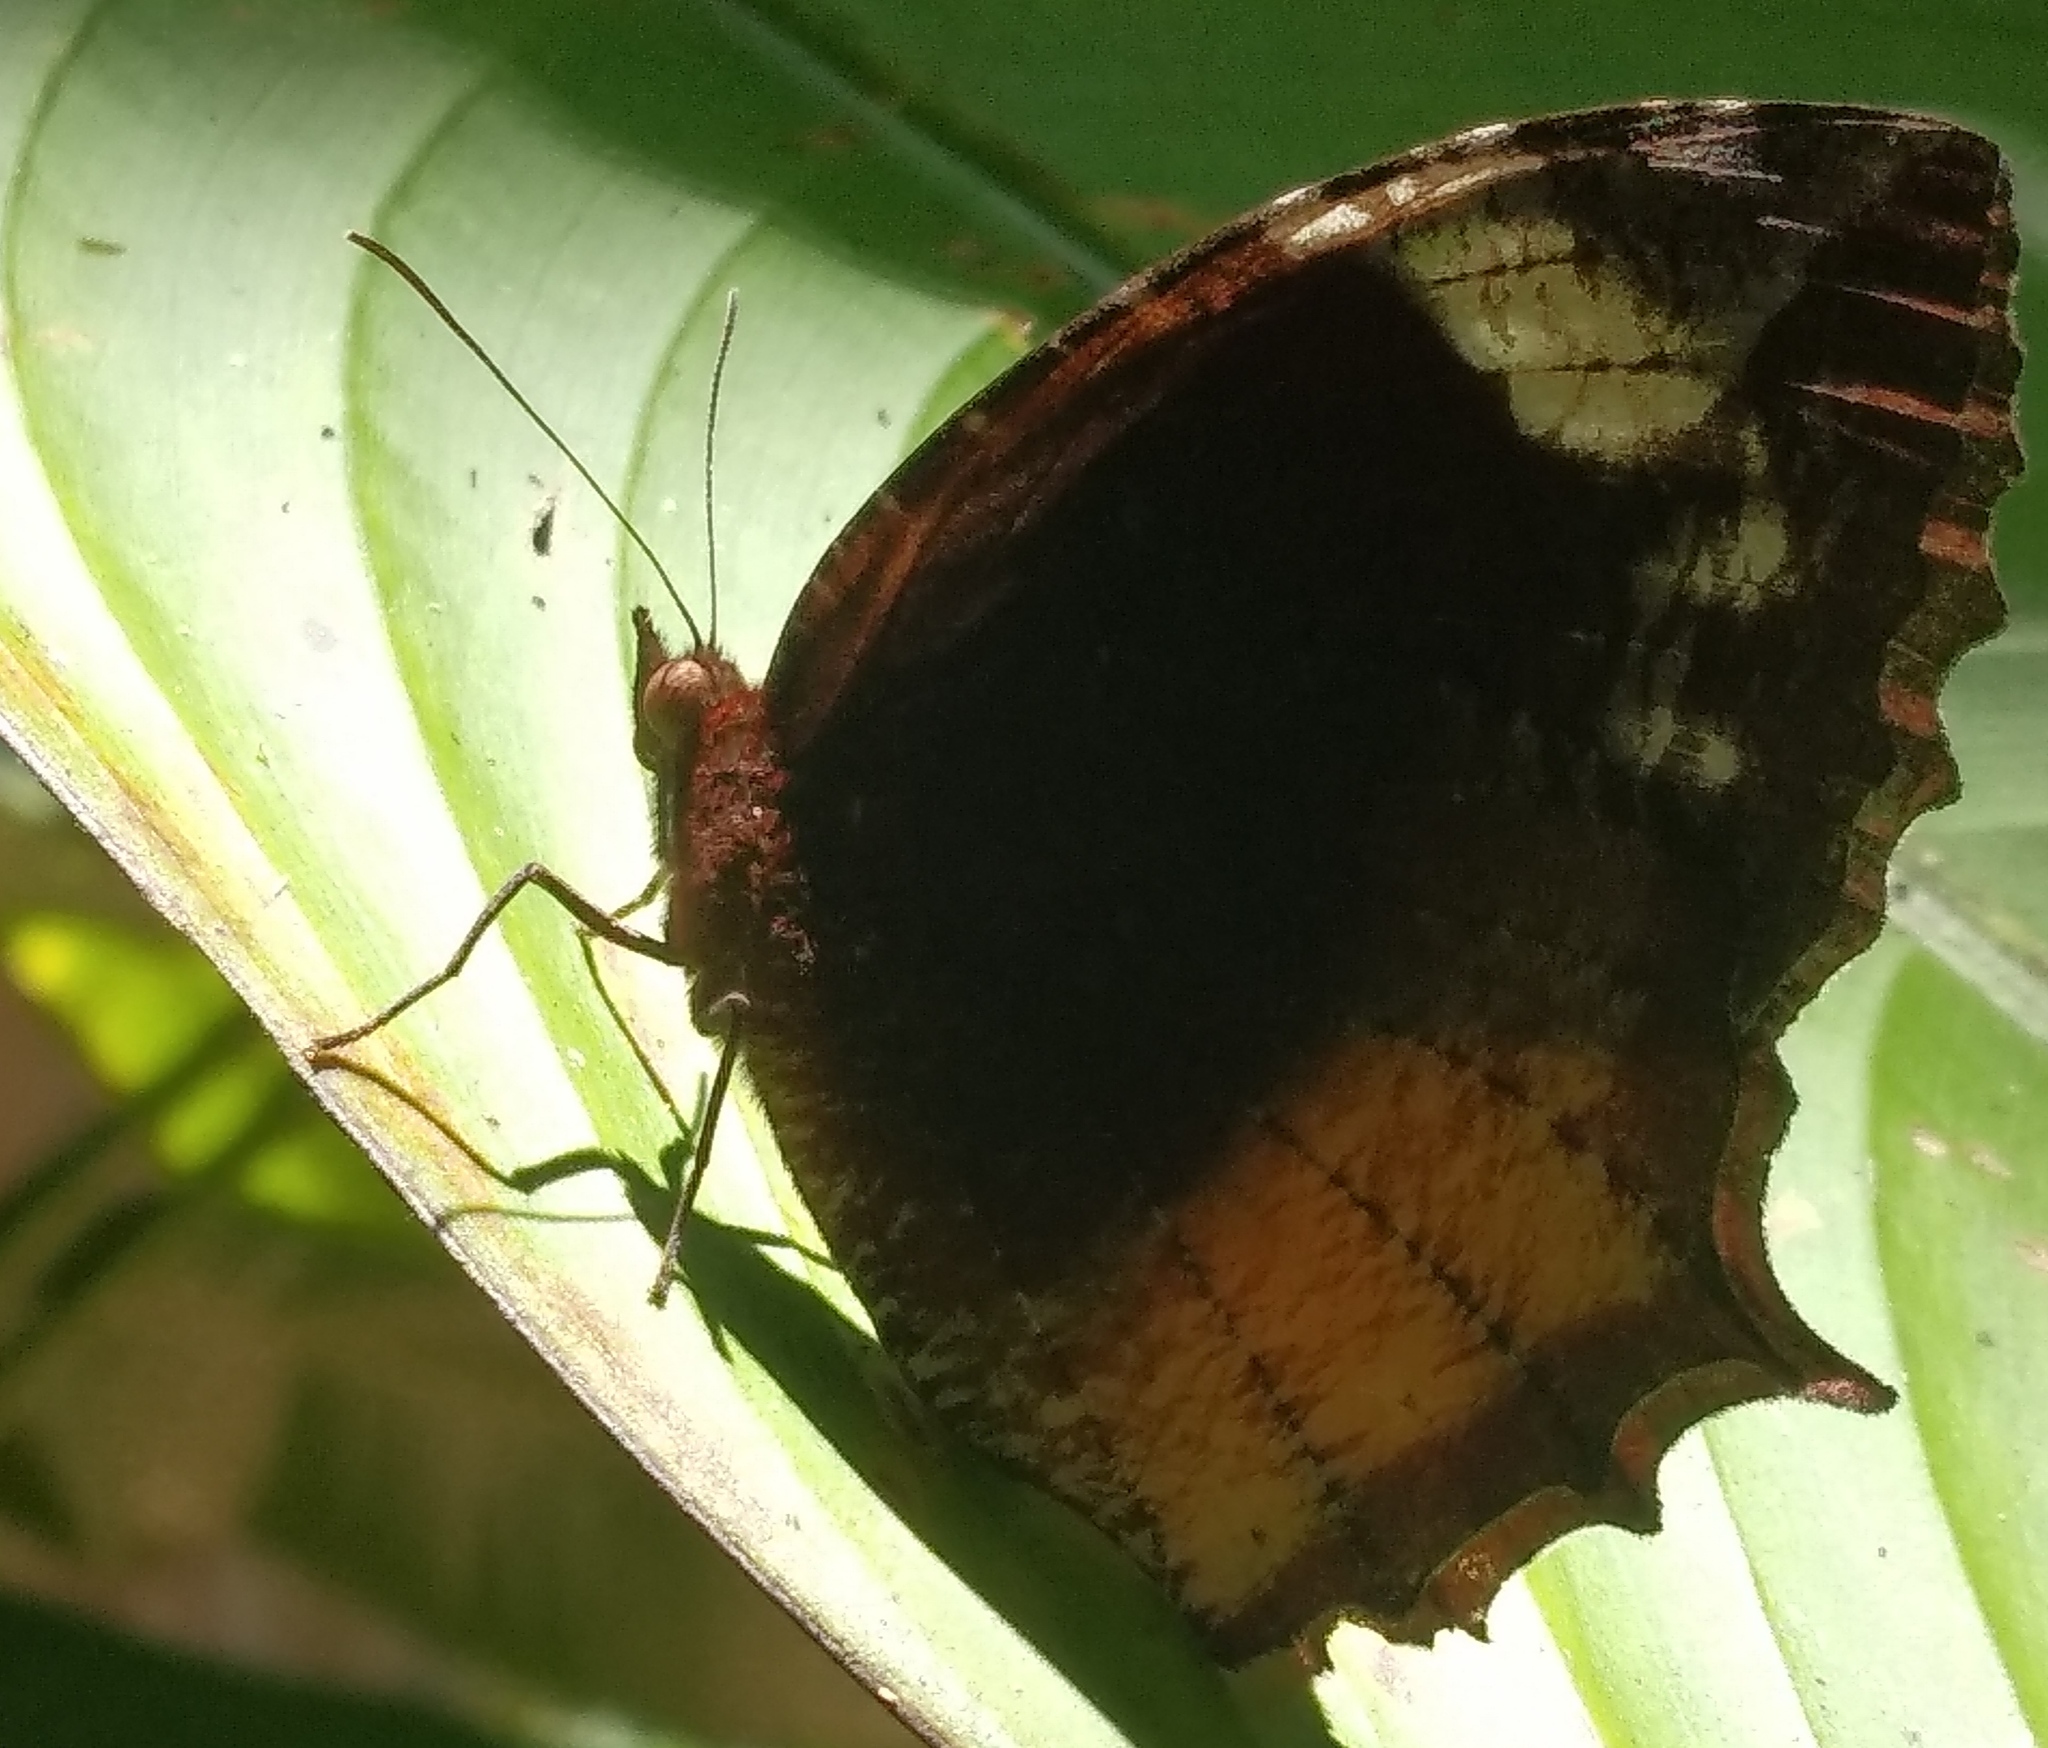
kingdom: Animalia
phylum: Arthropoda
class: Insecta
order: Lepidoptera
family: Nymphalidae
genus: Elymnias
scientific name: Elymnias caudata
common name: Tailed palmfly
